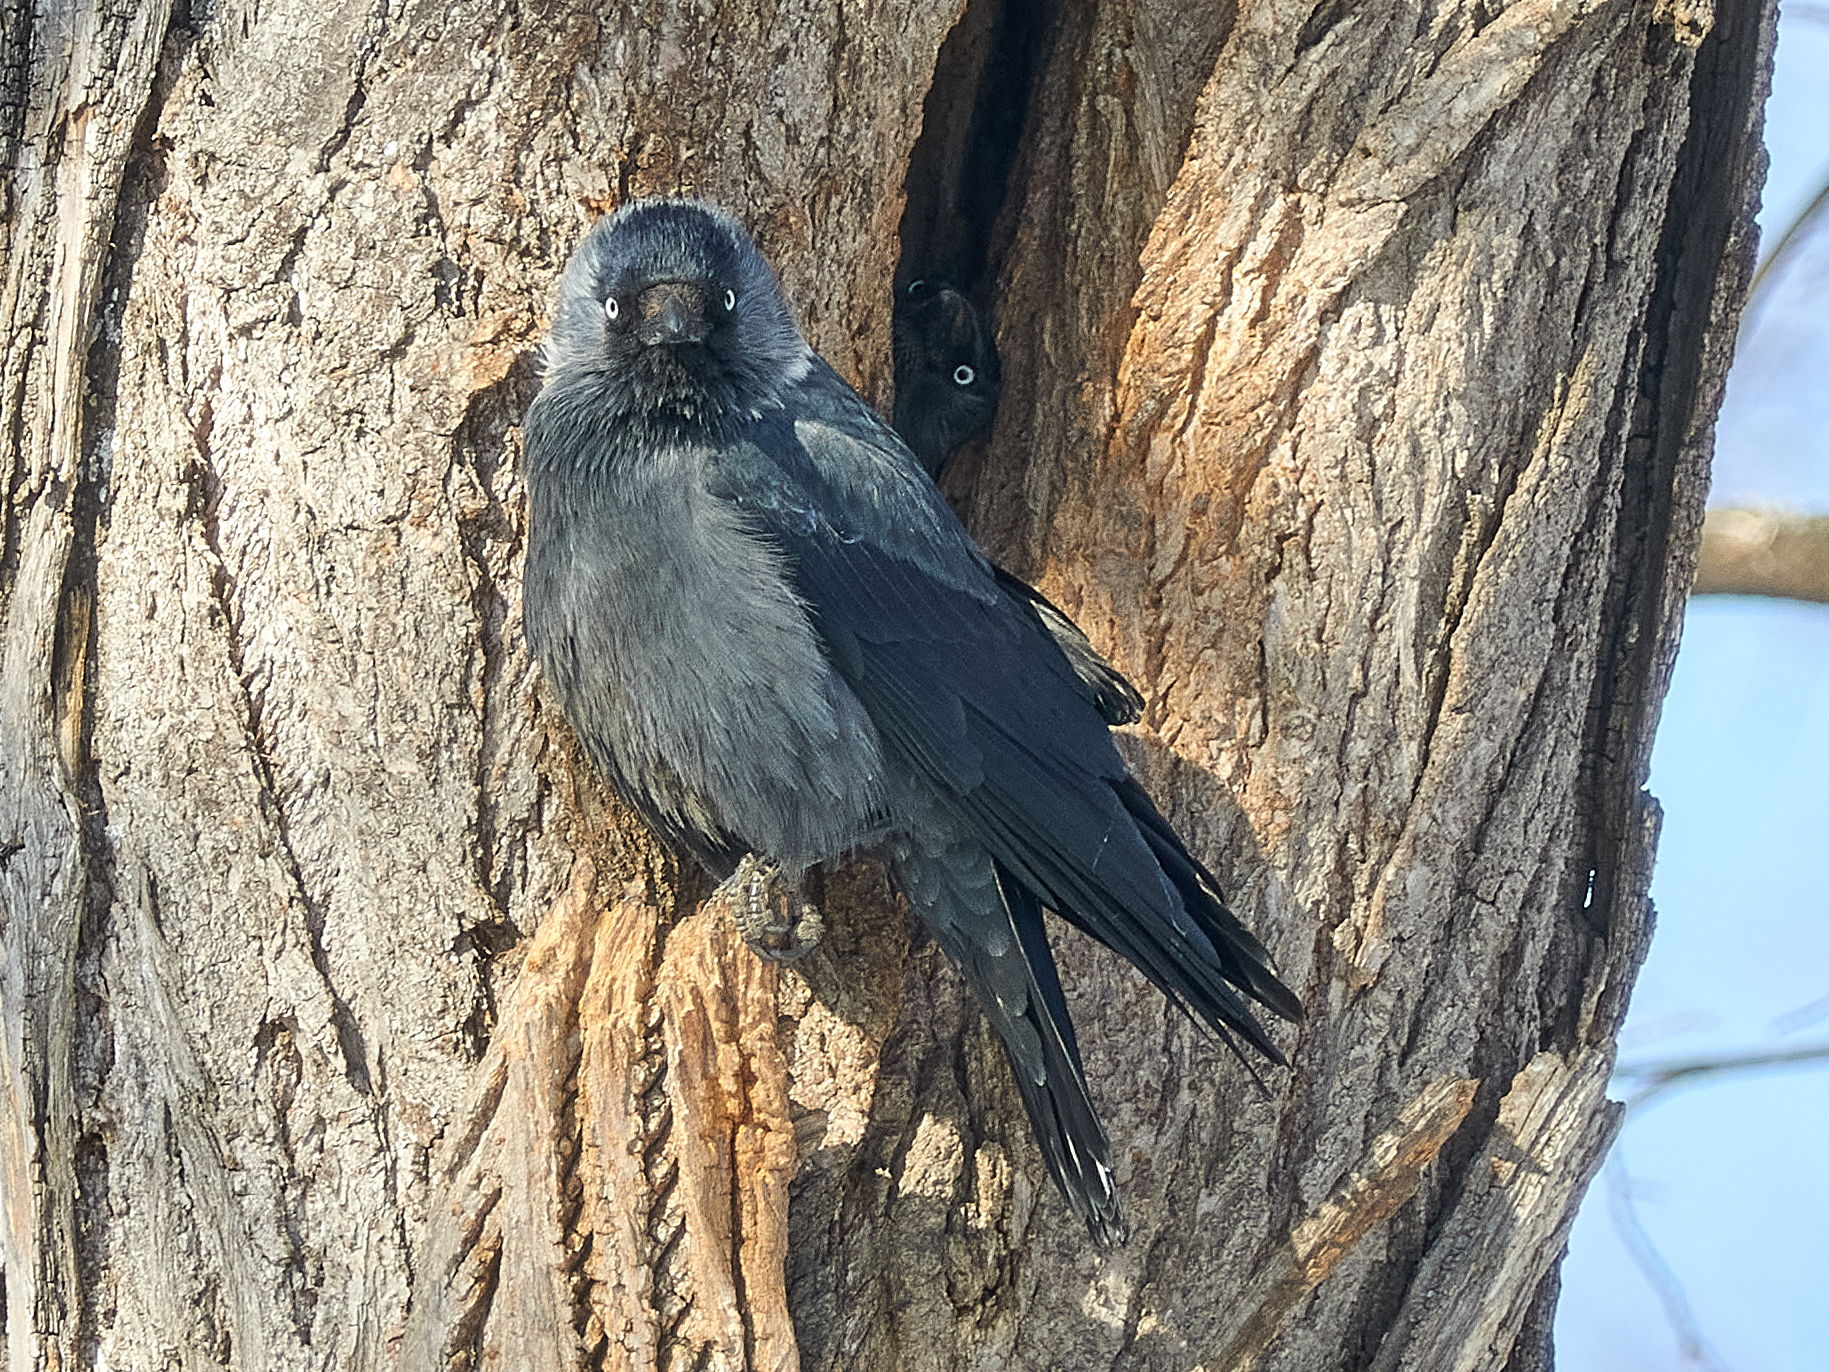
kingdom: Animalia
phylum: Chordata
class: Aves
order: Passeriformes
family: Corvidae
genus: Coloeus
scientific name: Coloeus monedula
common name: Western jackdaw
